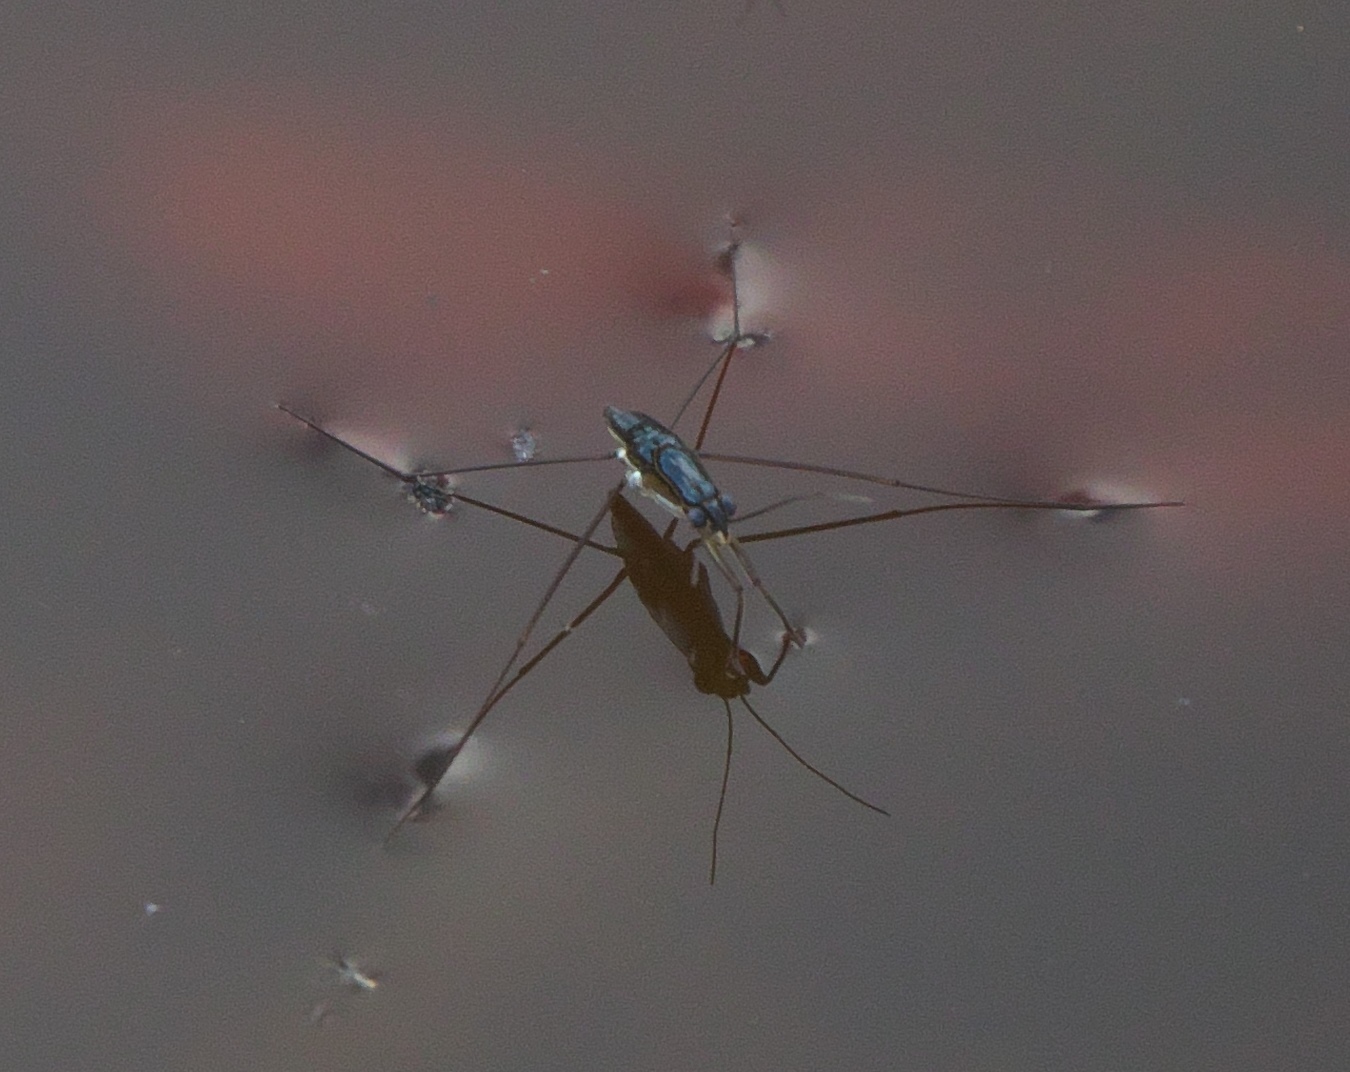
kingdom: Animalia
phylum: Arthropoda
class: Insecta
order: Hemiptera
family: Gerridae
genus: Limnogonus
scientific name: Limnogonus
